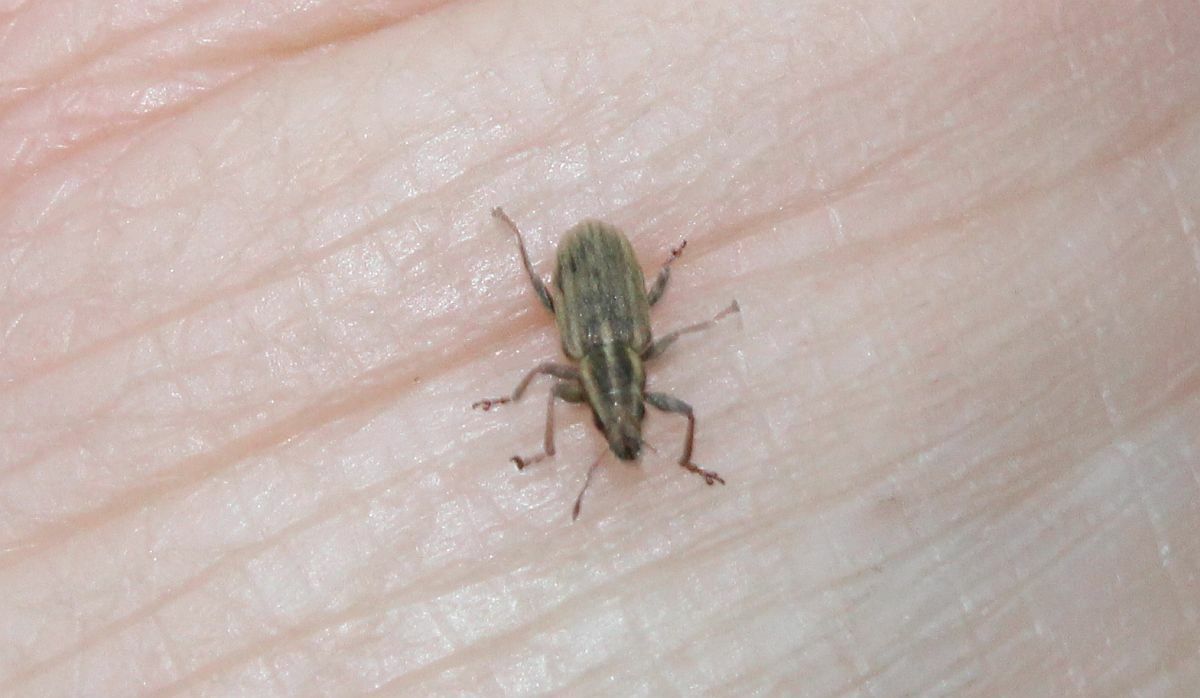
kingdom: Animalia
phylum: Arthropoda
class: Insecta
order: Coleoptera
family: Curculionidae
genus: Sitona
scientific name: Sitona lineatus
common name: Weevil
